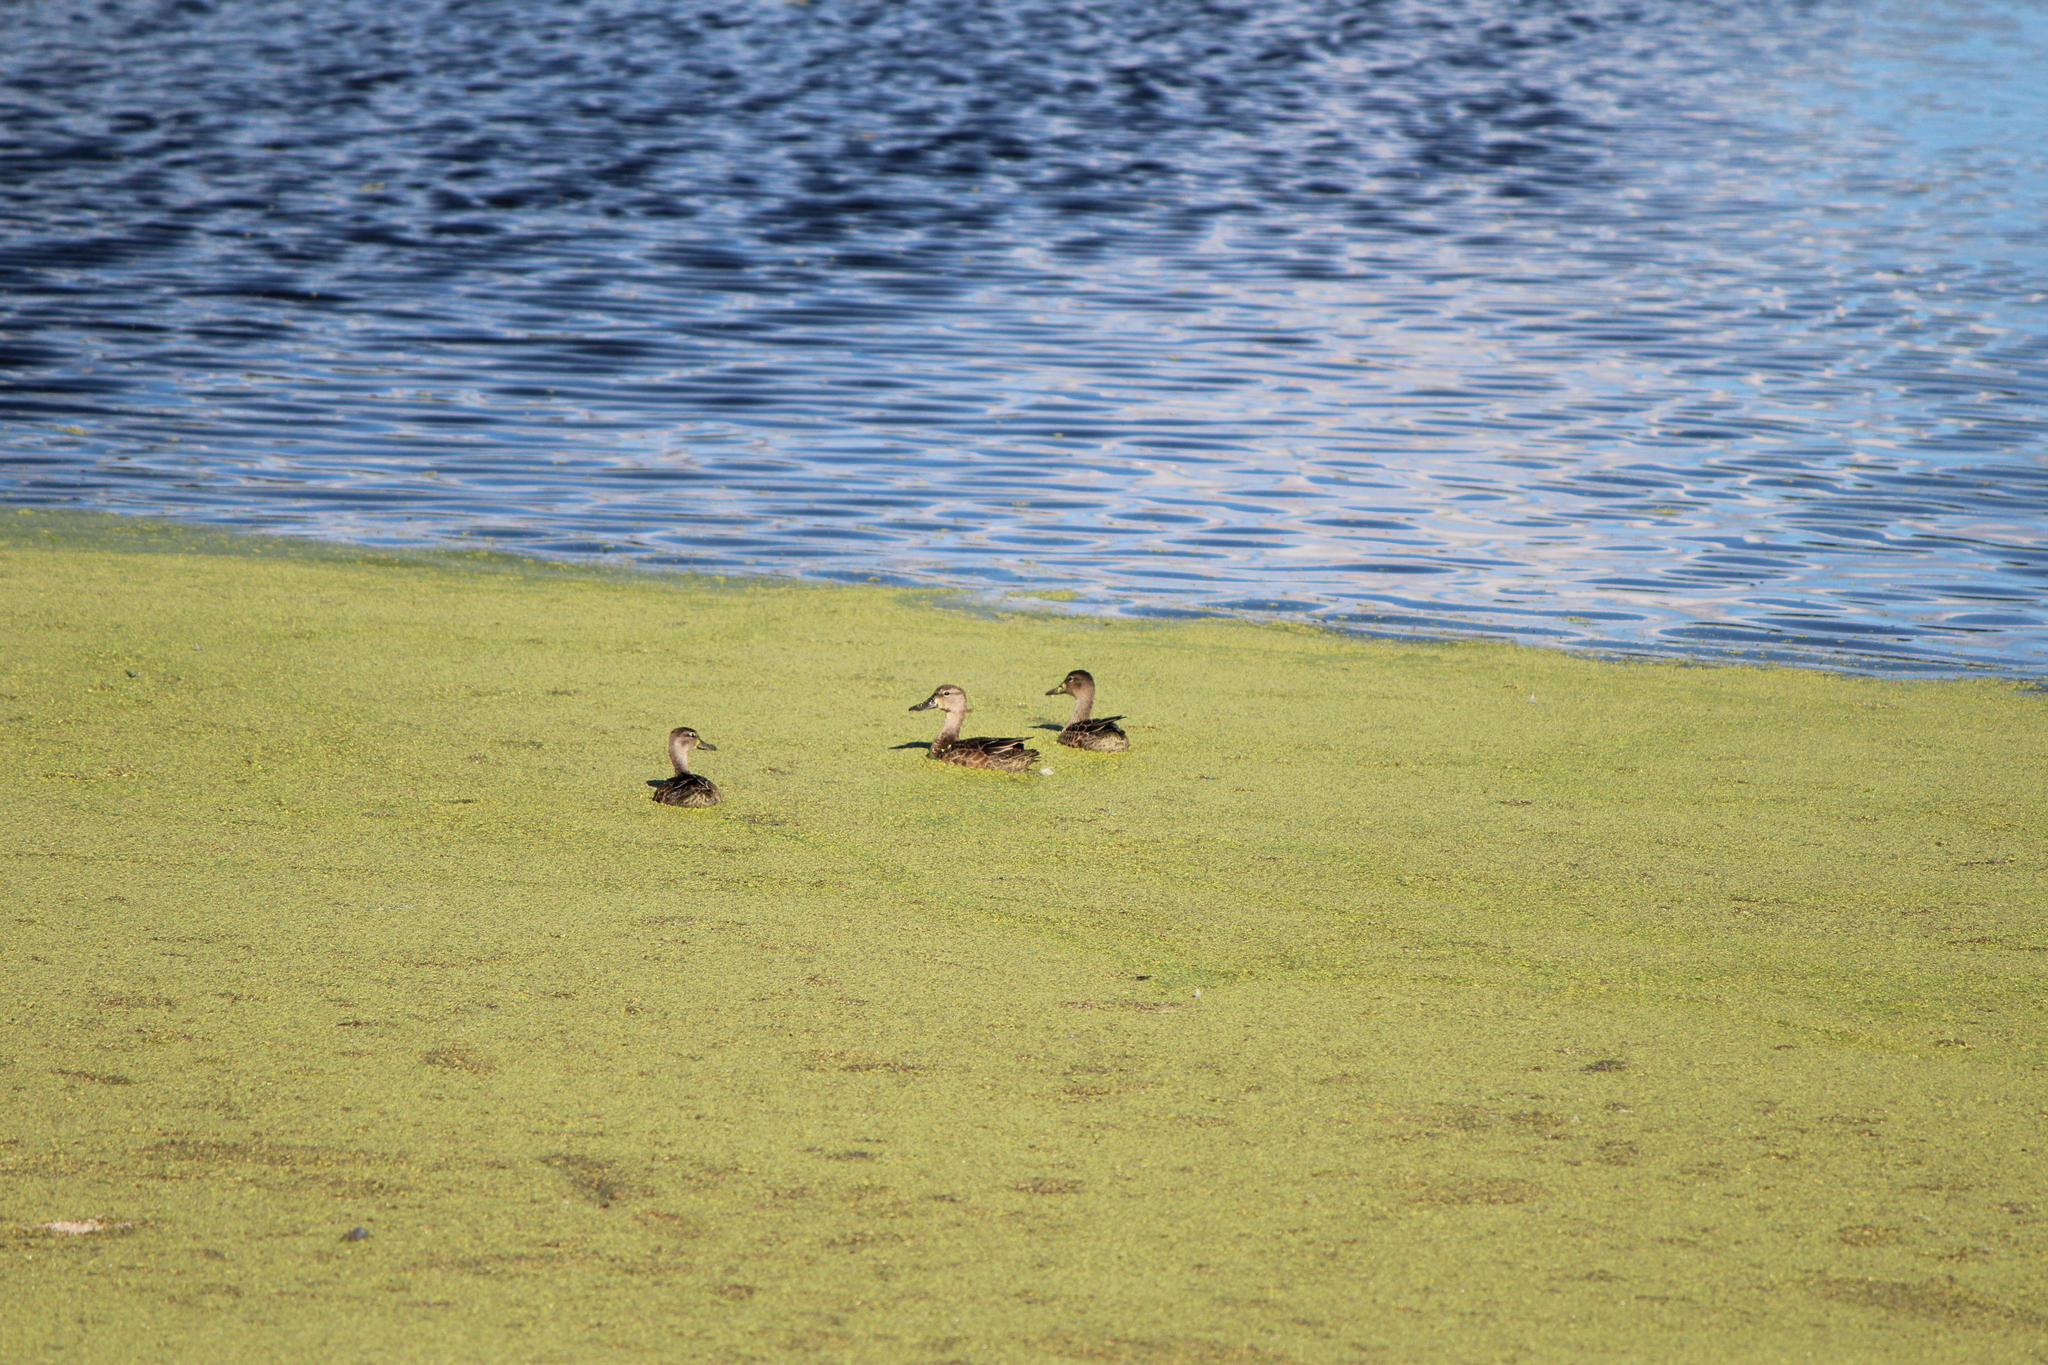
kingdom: Animalia
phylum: Chordata
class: Aves
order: Anseriformes
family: Anatidae
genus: Spatula
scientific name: Spatula discors
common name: Blue-winged teal
